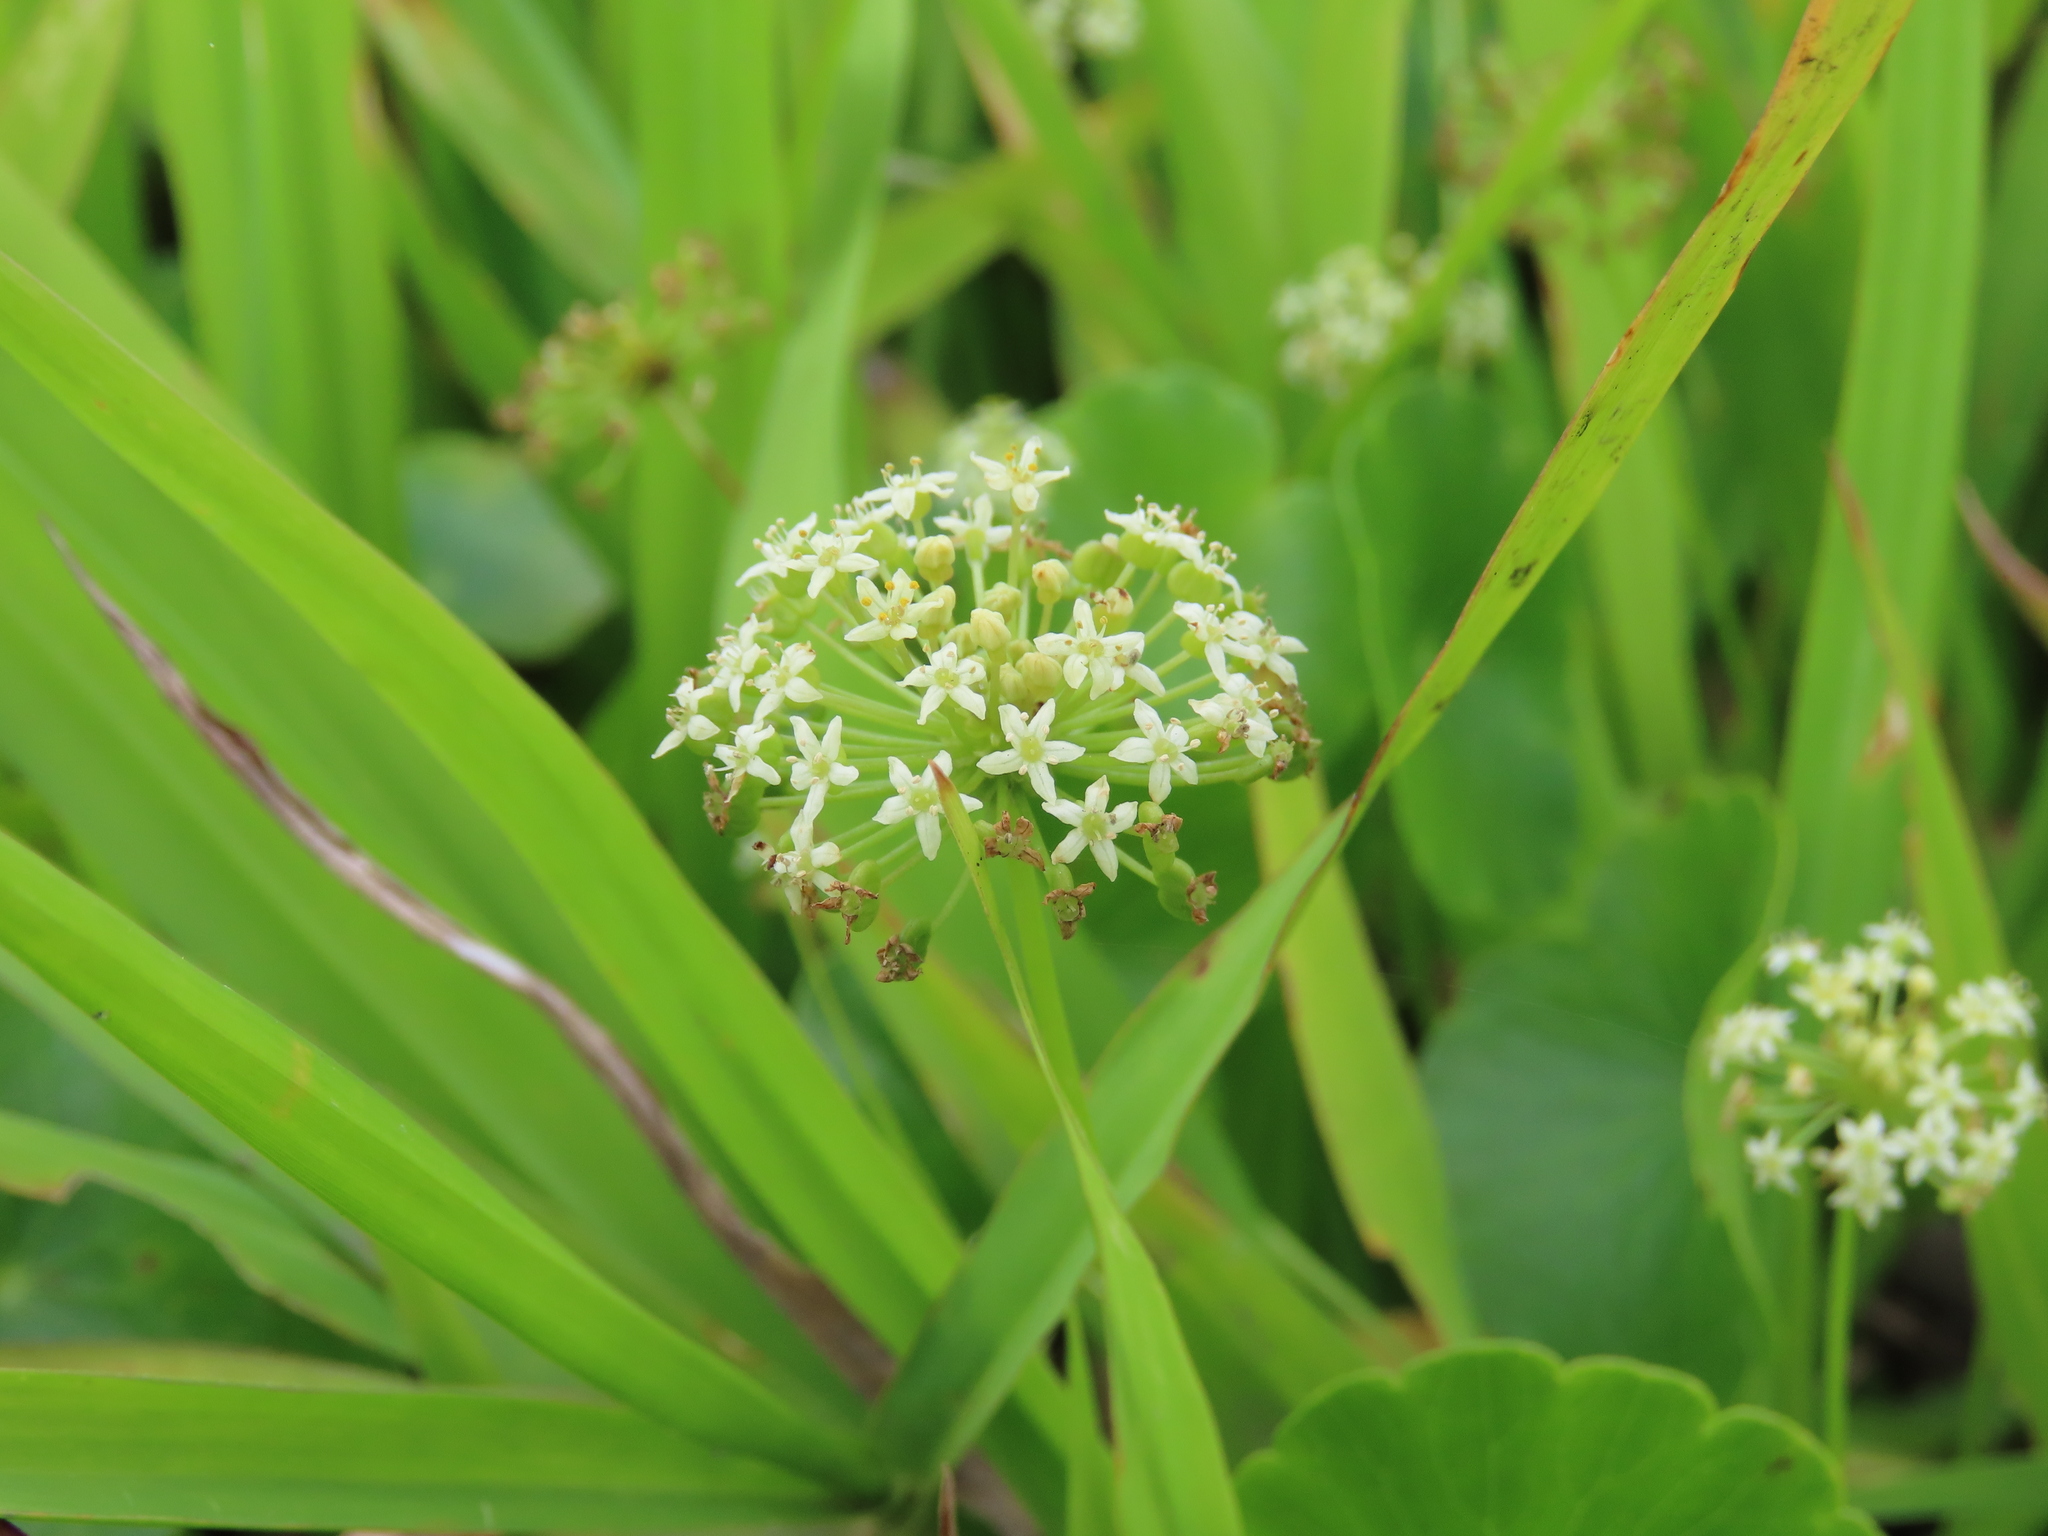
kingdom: Plantae
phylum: Tracheophyta
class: Magnoliopsida
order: Apiales
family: Araliaceae
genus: Hydrocotyle
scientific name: Hydrocotyle umbellata
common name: Water pennywort
